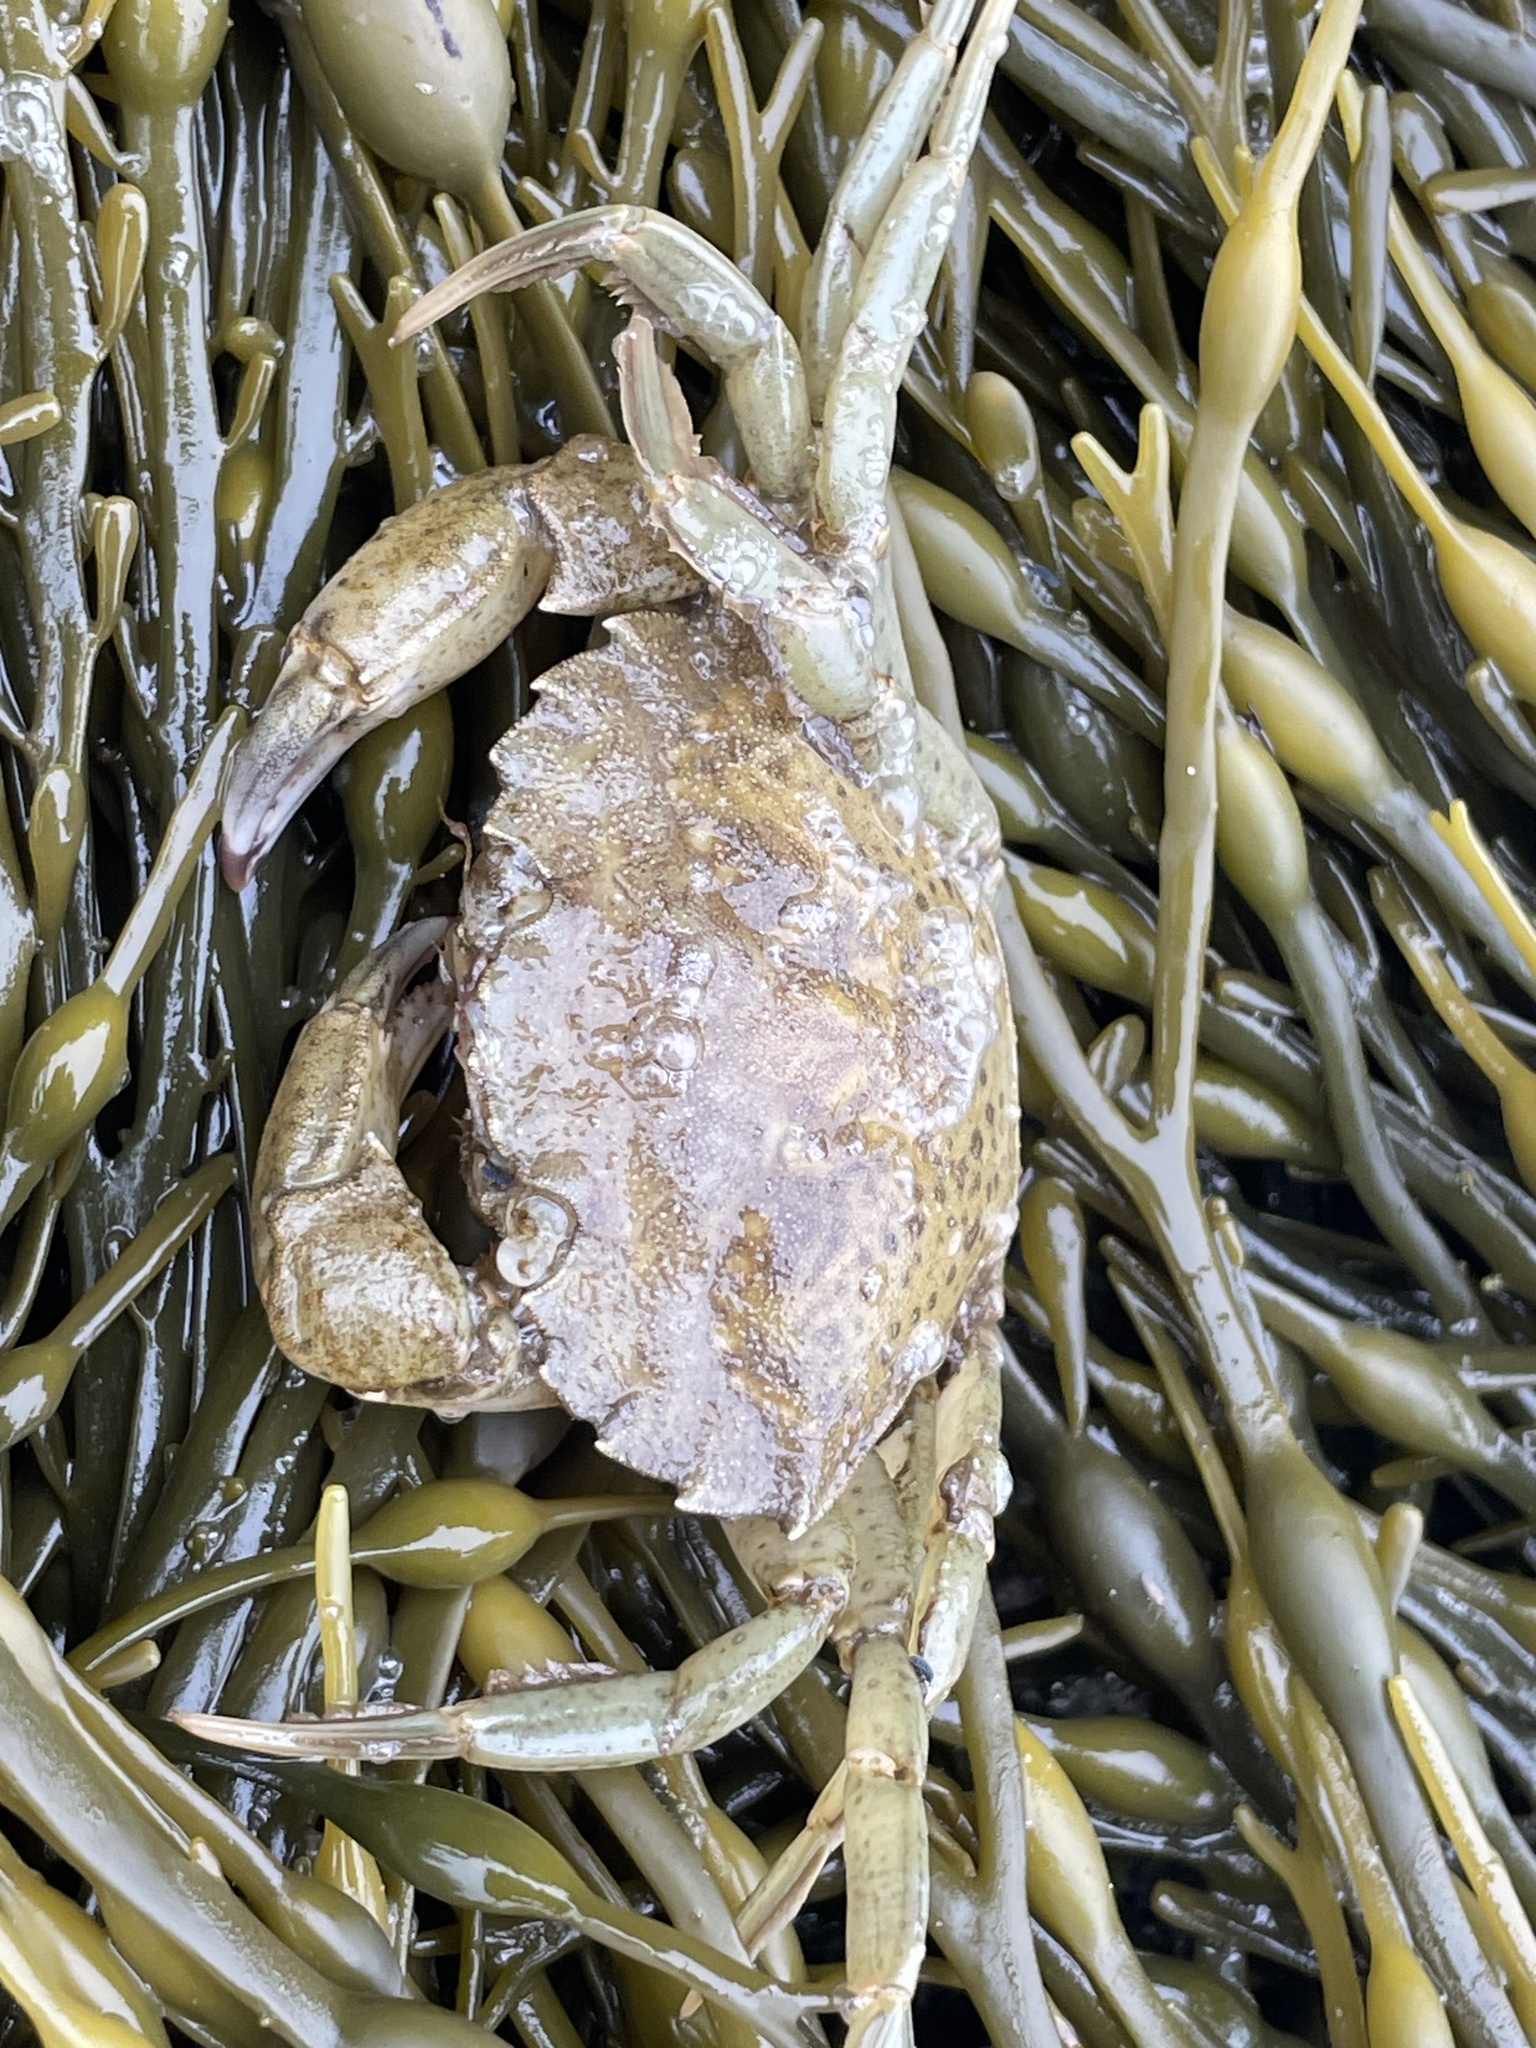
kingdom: Animalia
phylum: Arthropoda
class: Malacostraca
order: Decapoda
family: Carcinidae
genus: Carcinus
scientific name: Carcinus maenas
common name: European green crab
